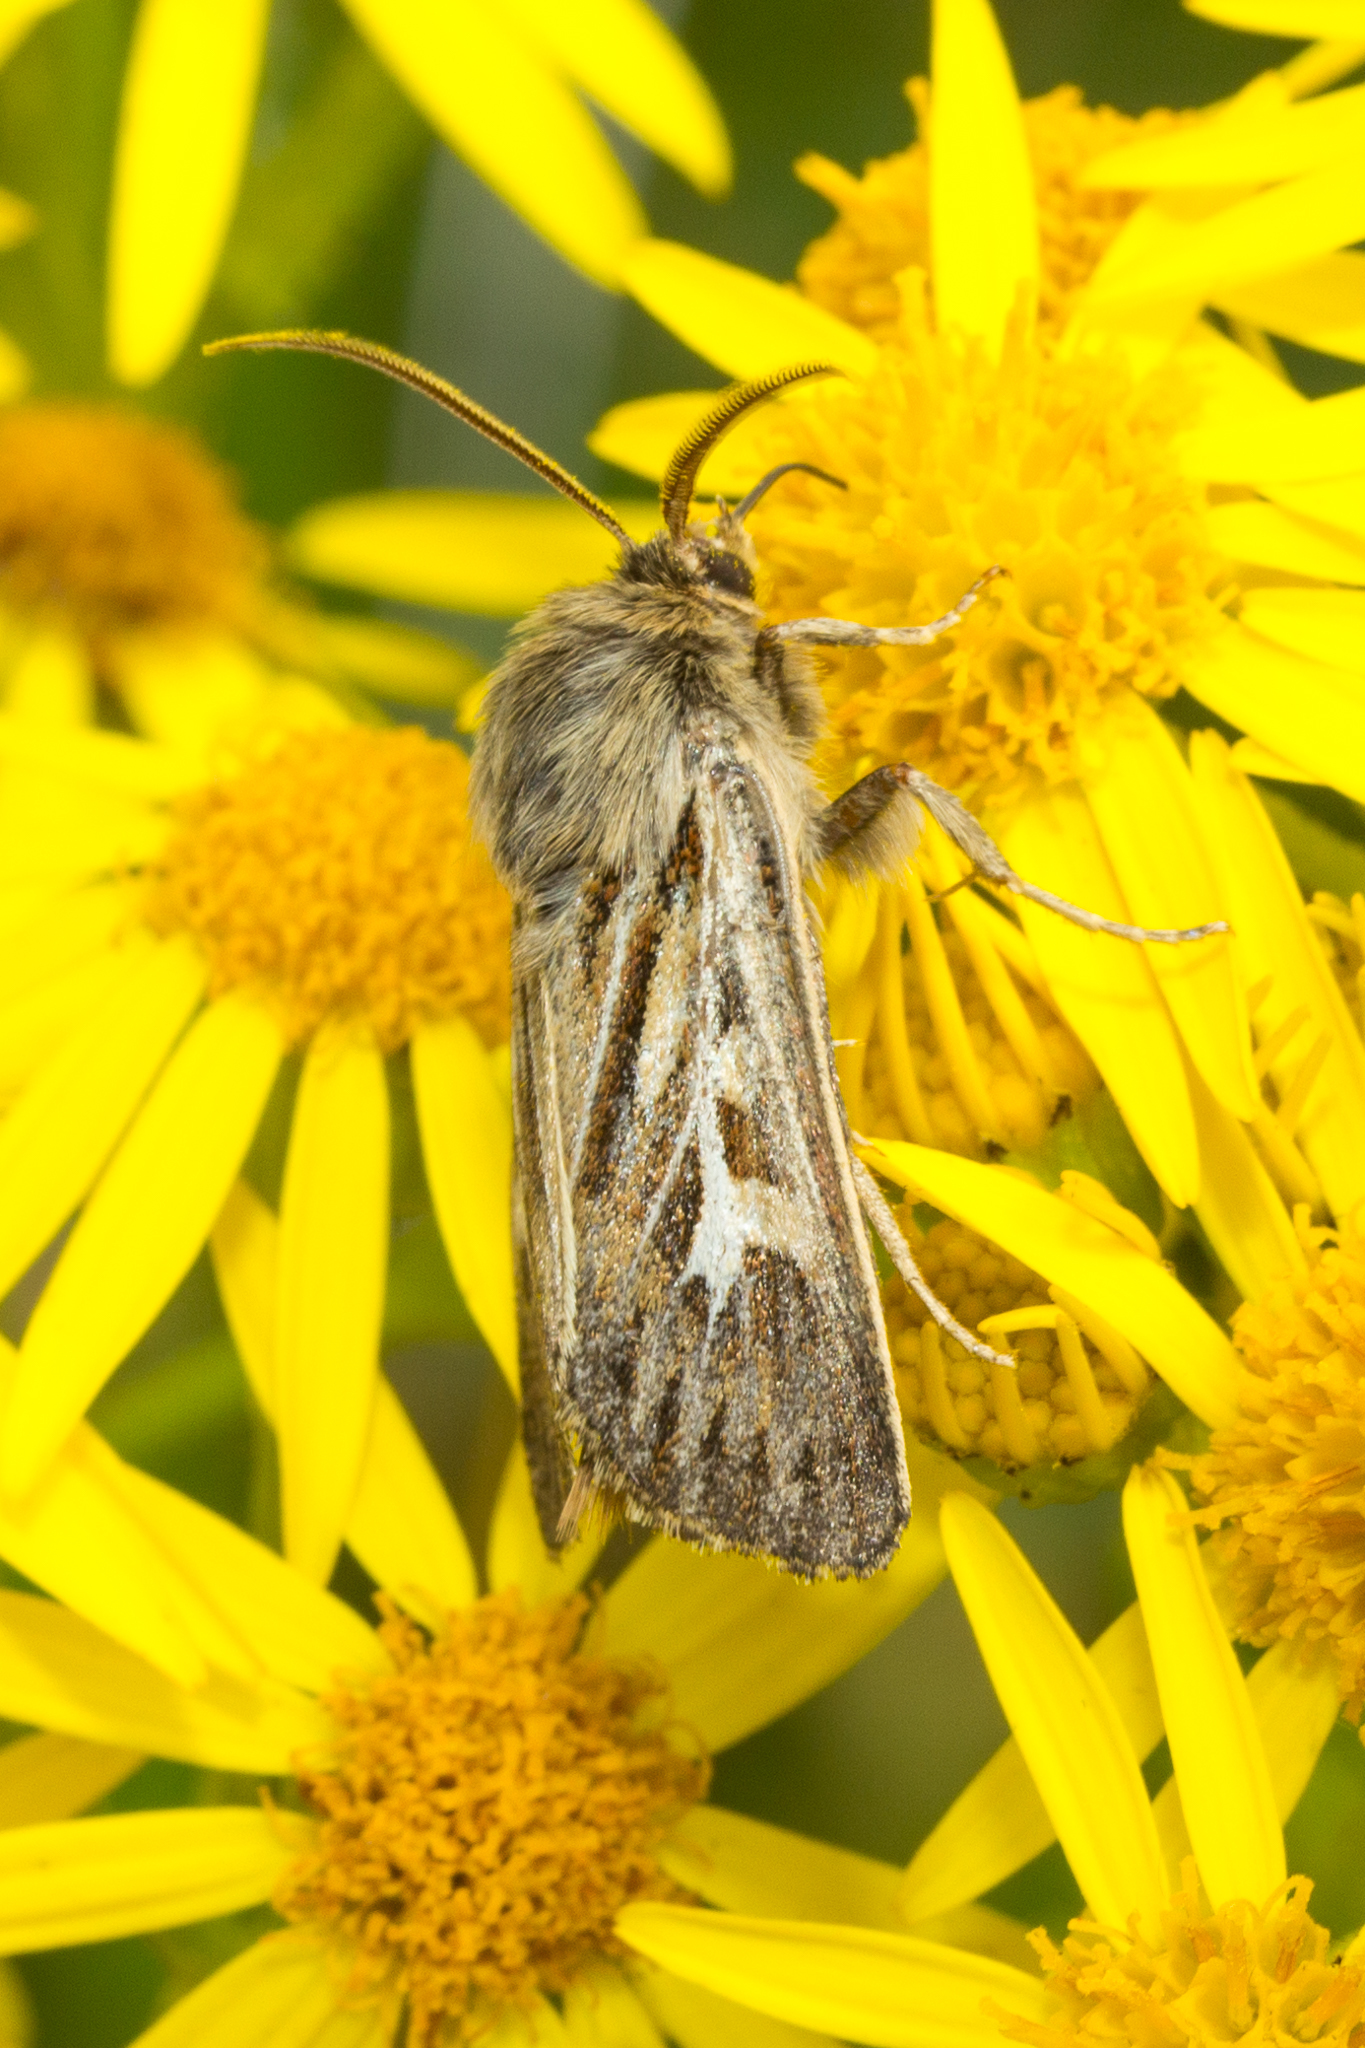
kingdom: Animalia
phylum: Arthropoda
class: Insecta
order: Lepidoptera
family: Noctuidae
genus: Cerapteryx
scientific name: Cerapteryx graminis
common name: Antler moth
